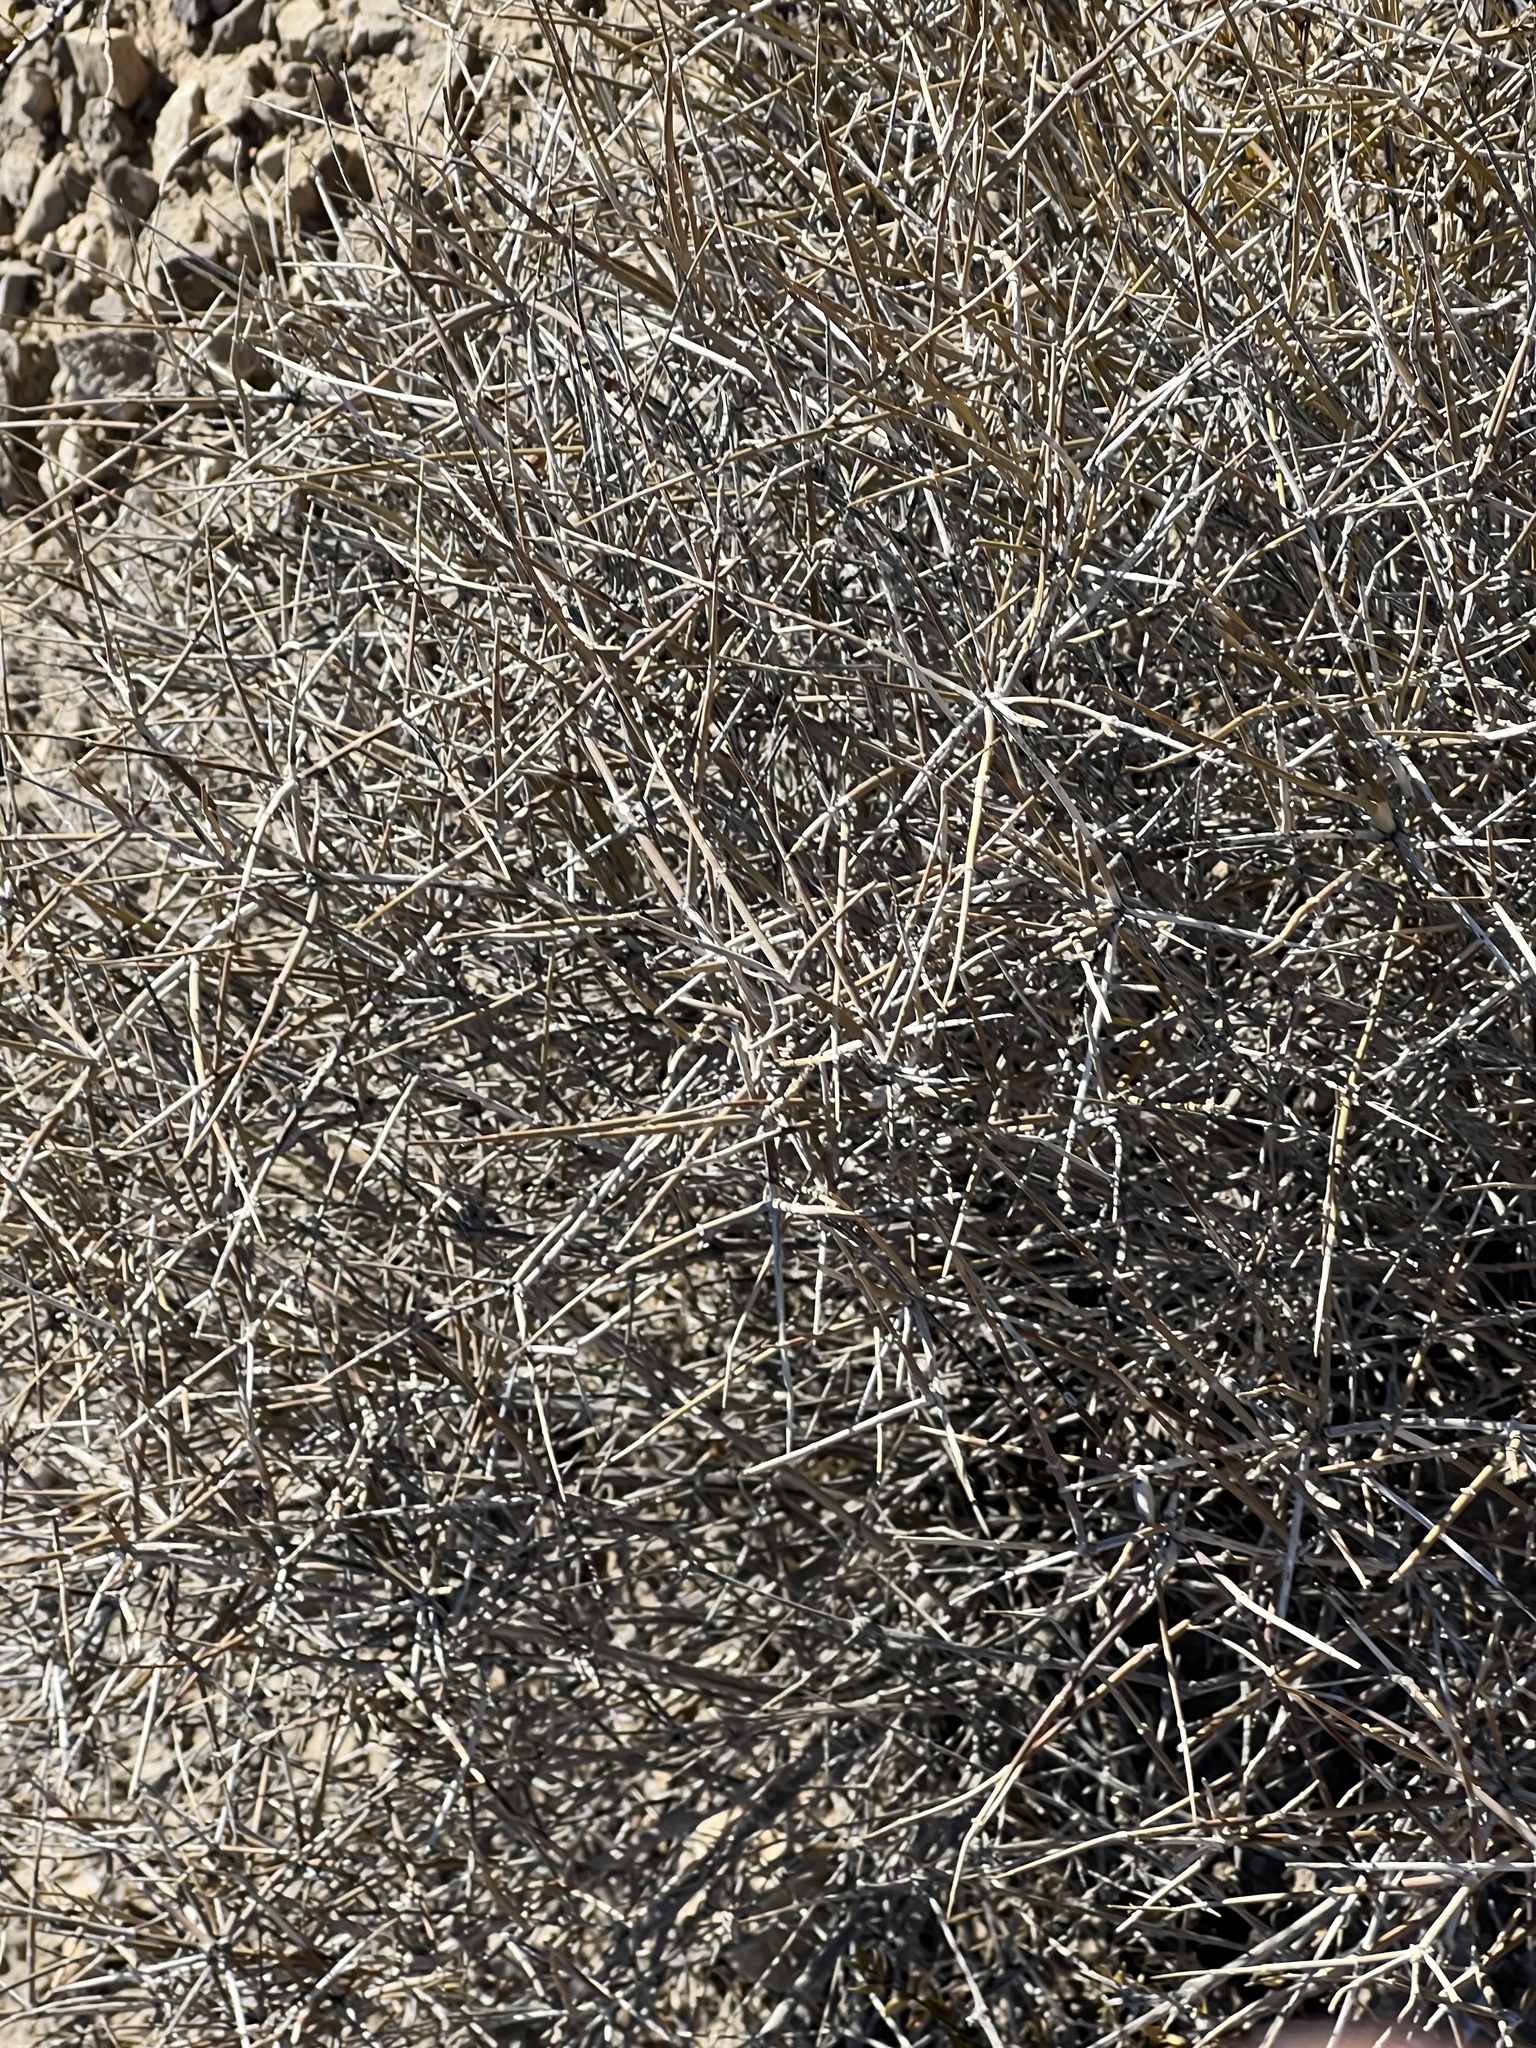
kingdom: Plantae
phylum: Tracheophyta
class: Gnetopsida
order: Ephedrales
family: Ephedraceae
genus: Ephedra
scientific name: Ephedra nevadensis
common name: Gray ephedra
